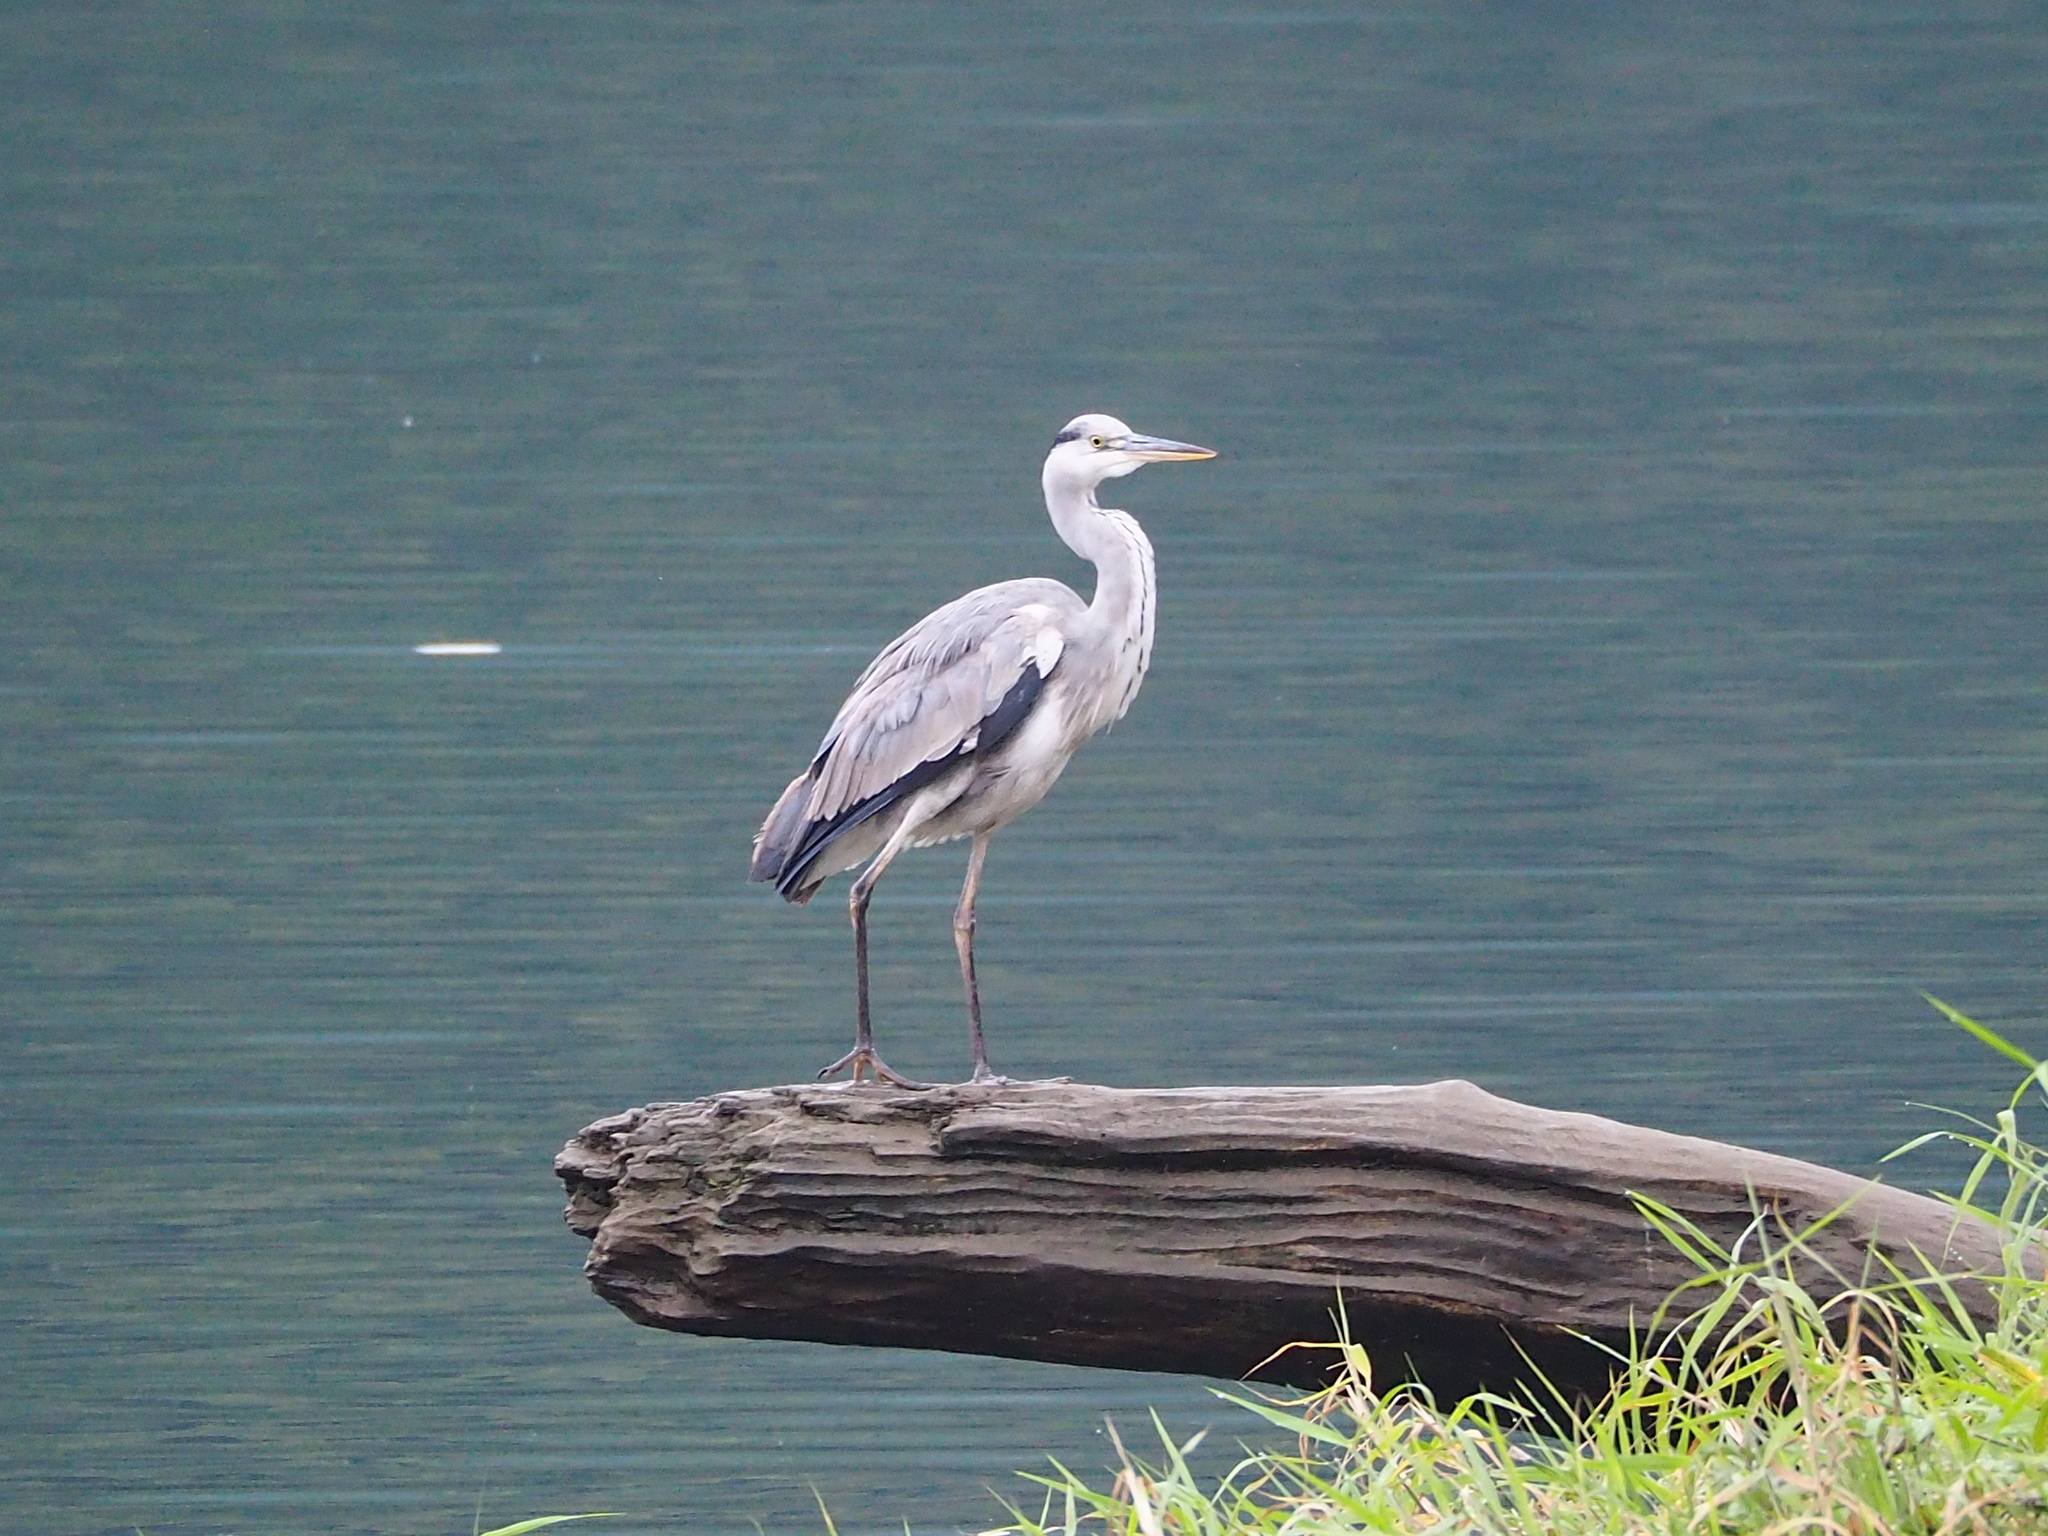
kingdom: Animalia
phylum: Chordata
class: Aves
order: Pelecaniformes
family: Ardeidae
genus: Ardea
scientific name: Ardea cinerea
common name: Grey heron
